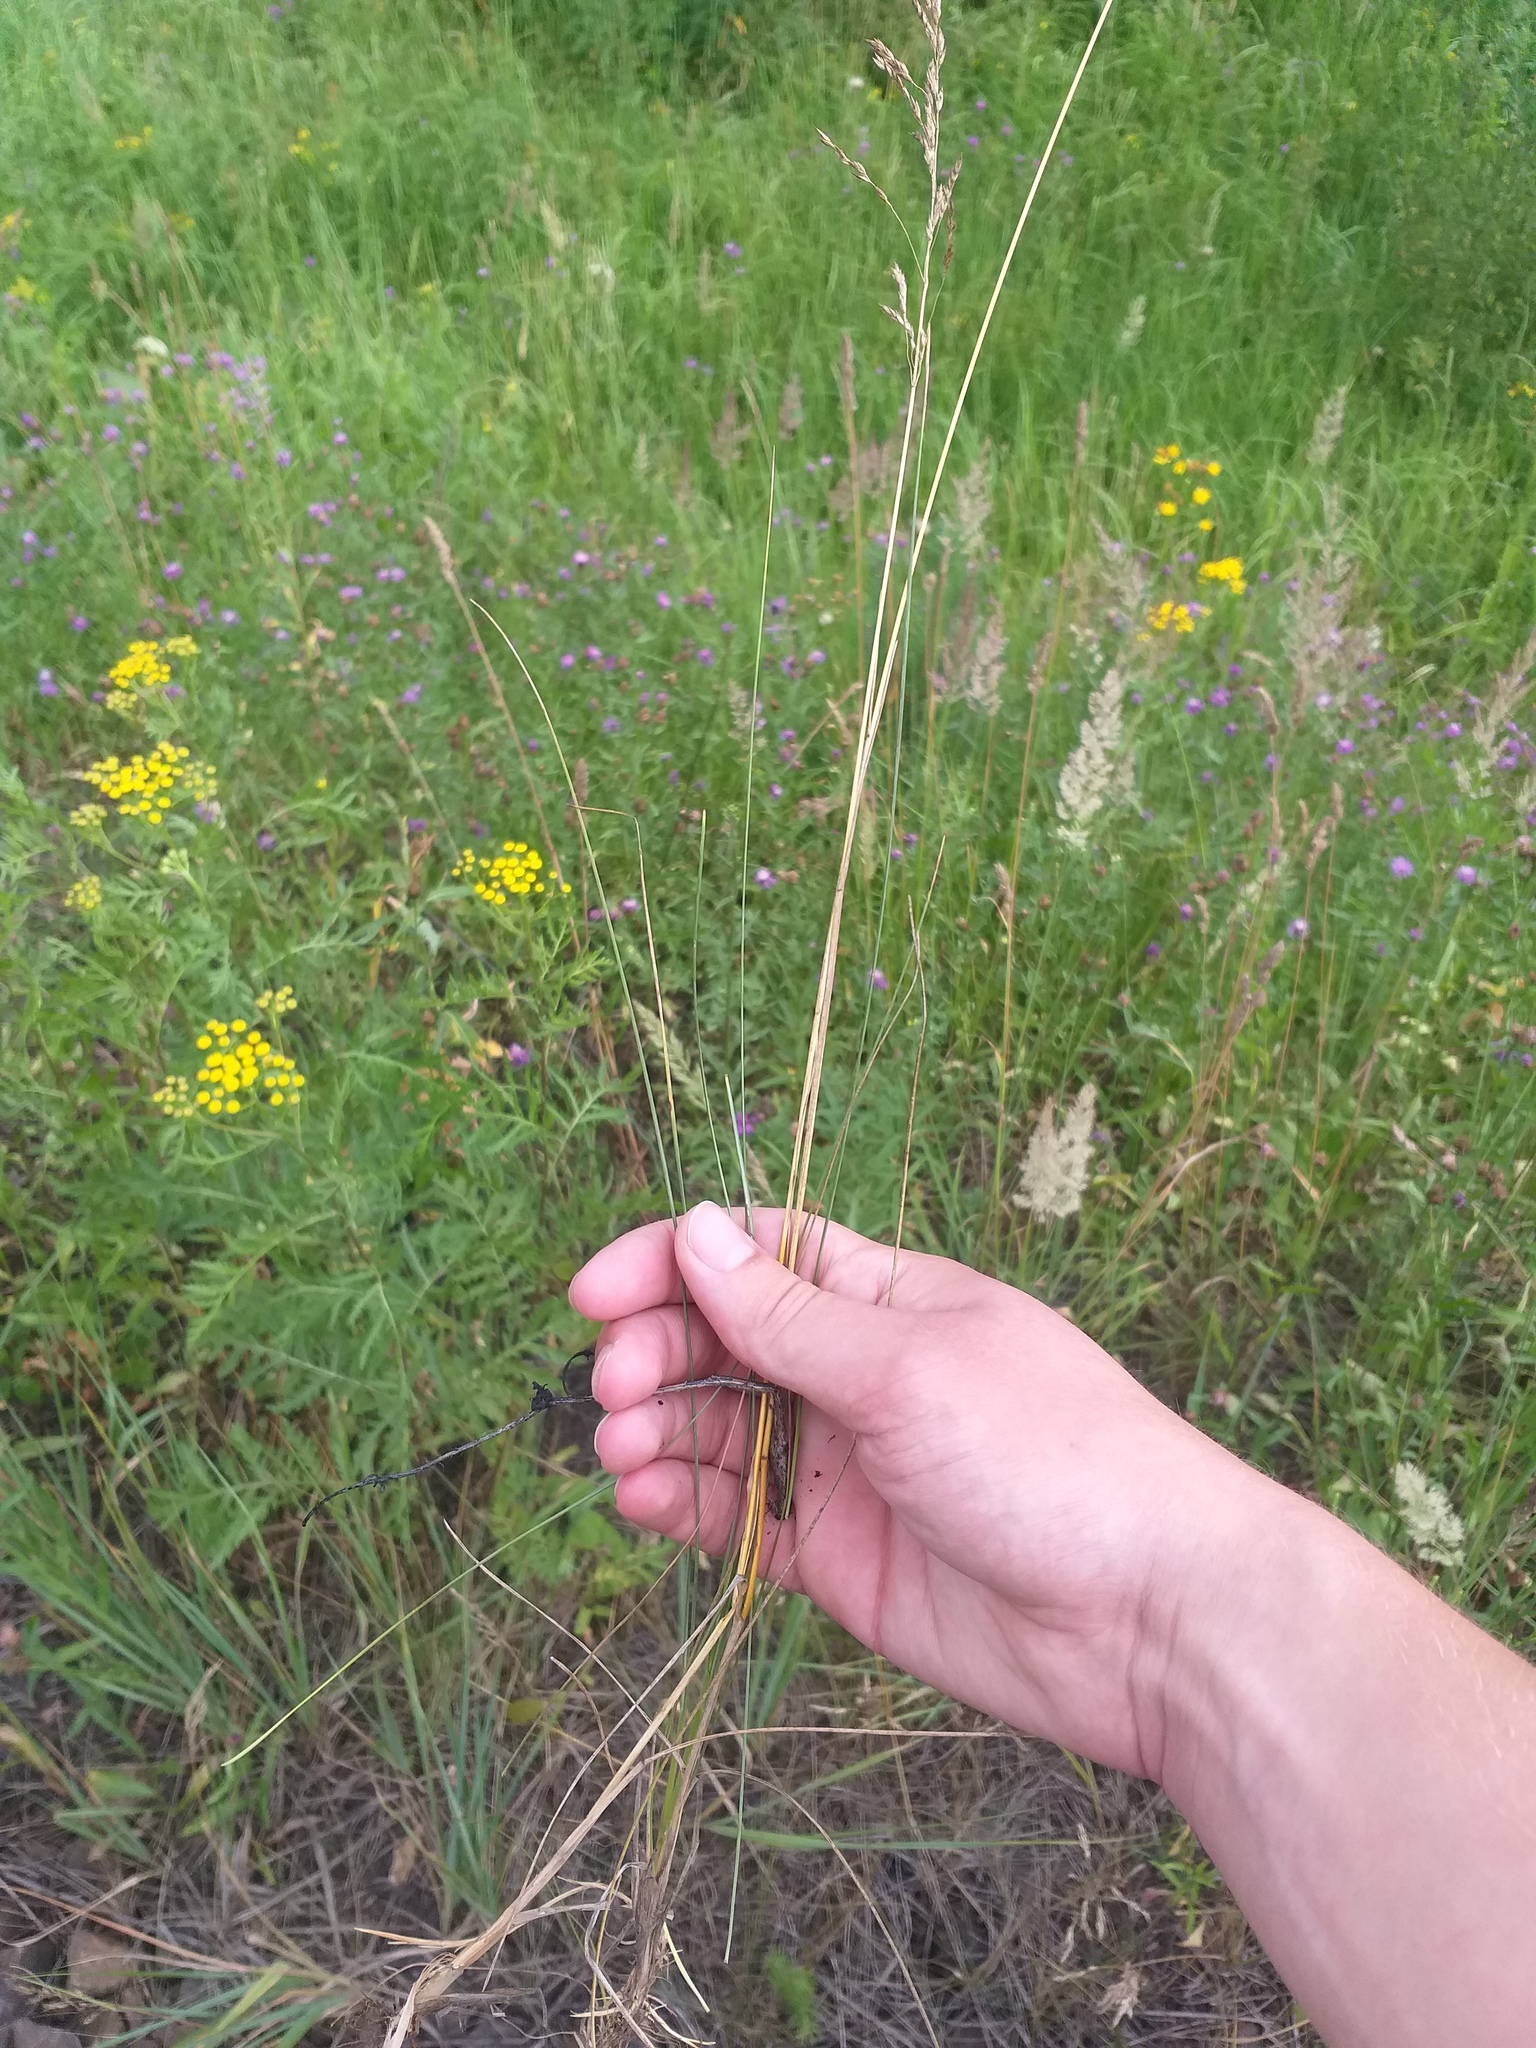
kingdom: Plantae
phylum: Tracheophyta
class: Liliopsida
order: Poales
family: Poaceae
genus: Poa
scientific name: Poa angustifolia
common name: Narrow-leaved meadow-grass
